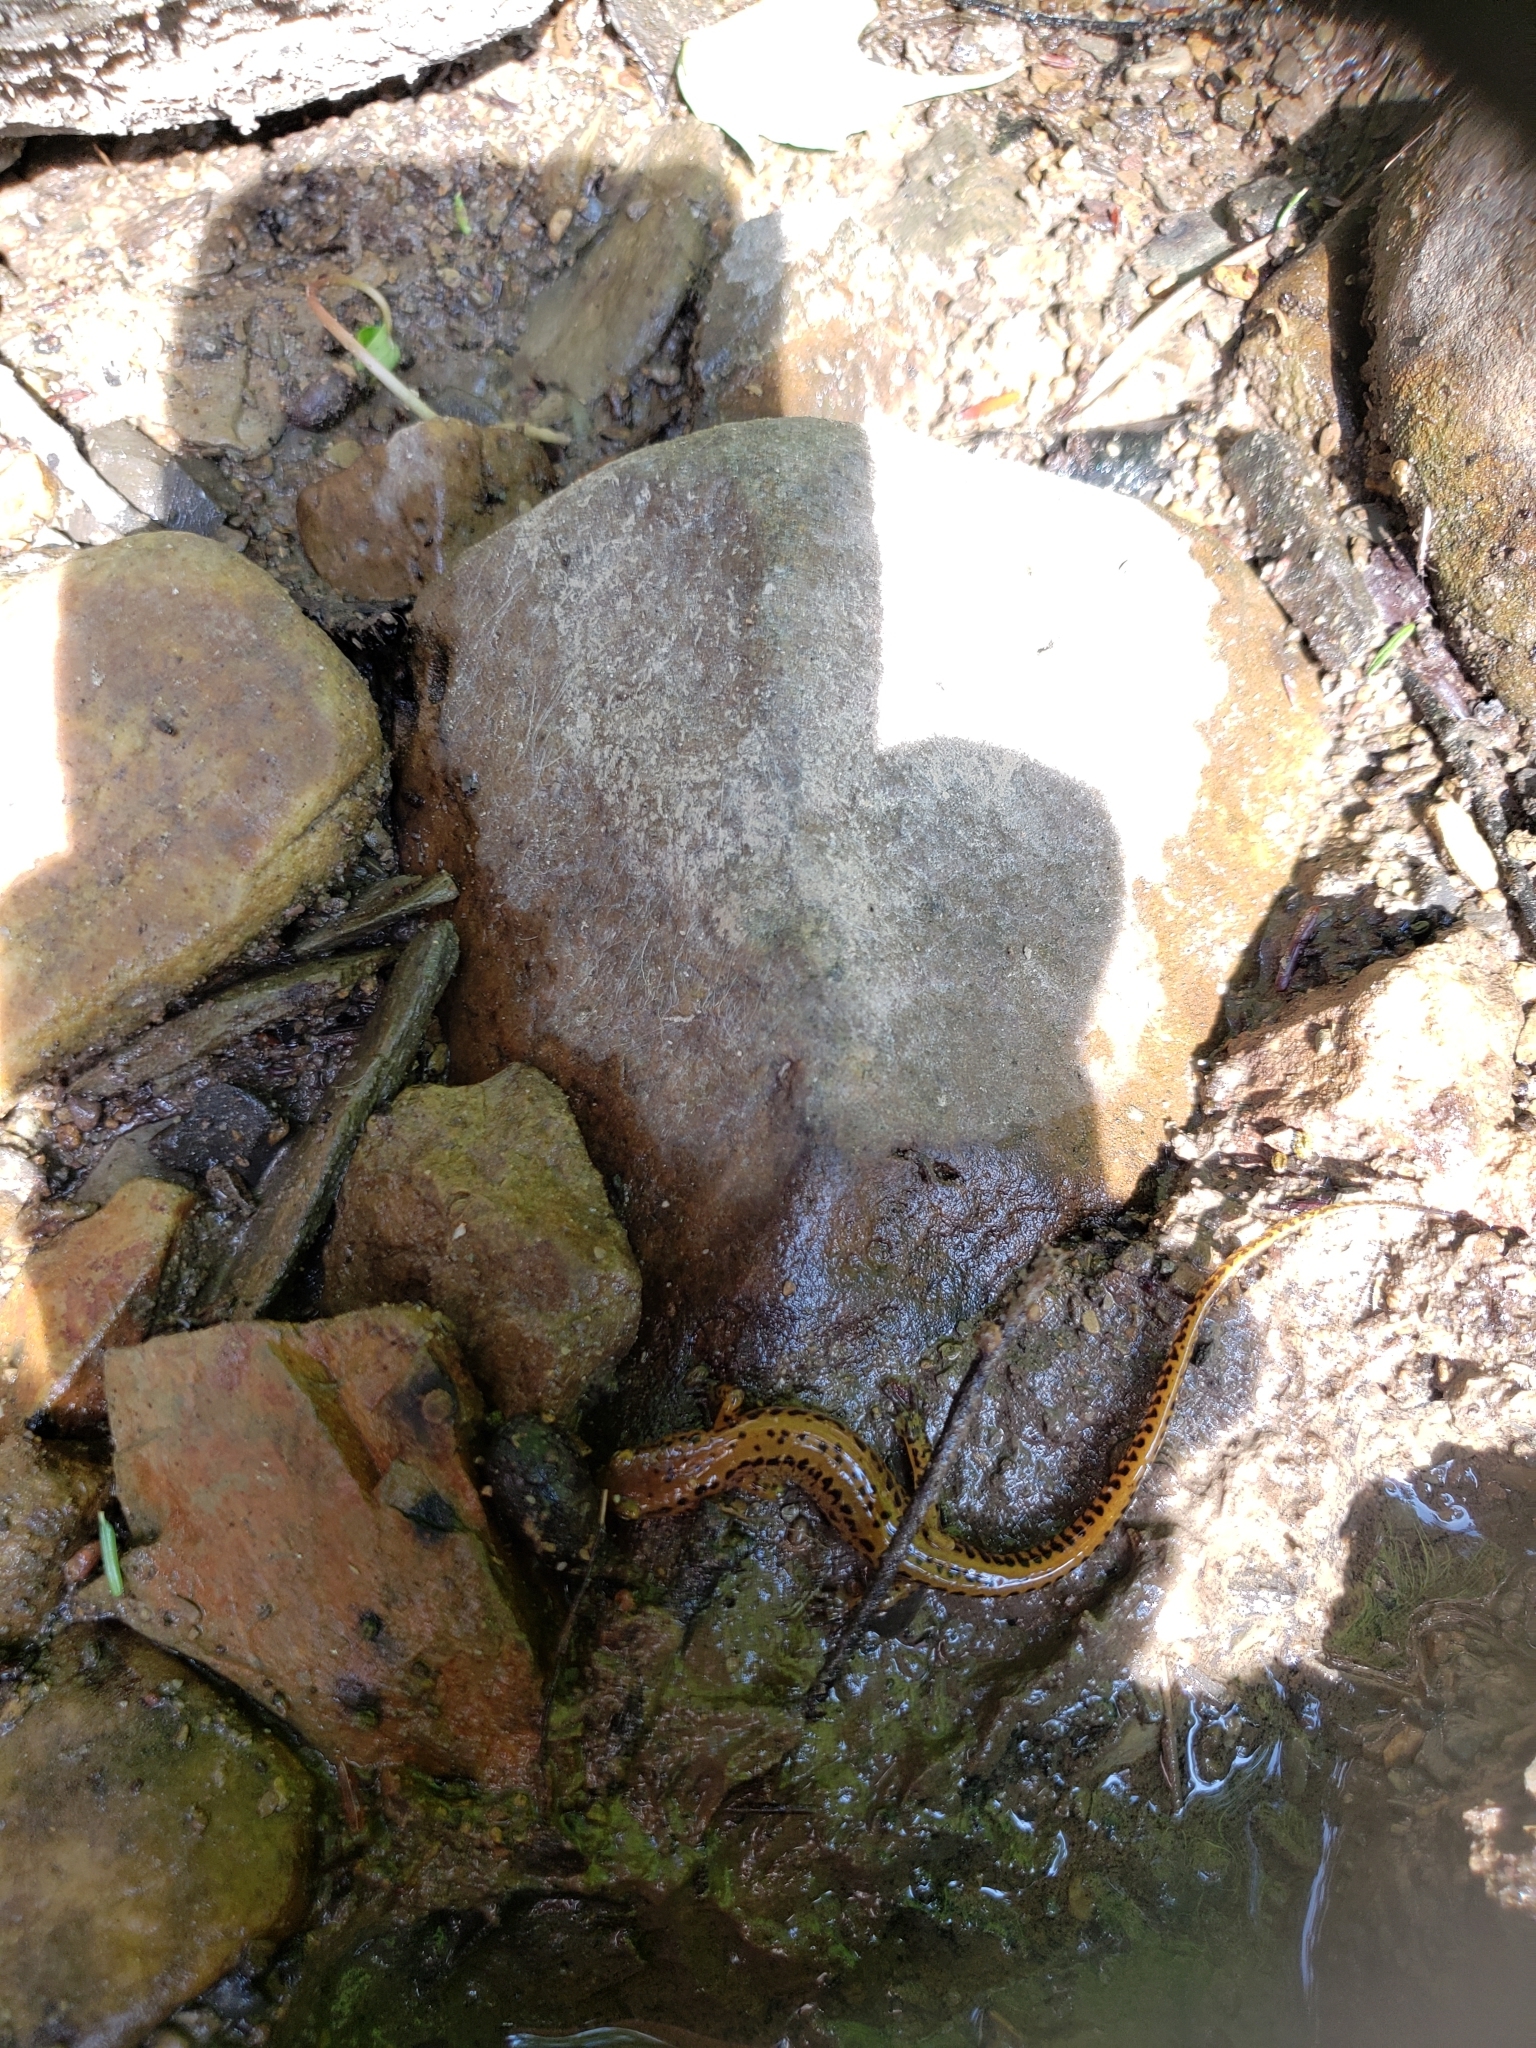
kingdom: Animalia
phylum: Chordata
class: Amphibia
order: Caudata
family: Plethodontidae
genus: Eurycea
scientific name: Eurycea longicauda
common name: Long-tailed salamander
